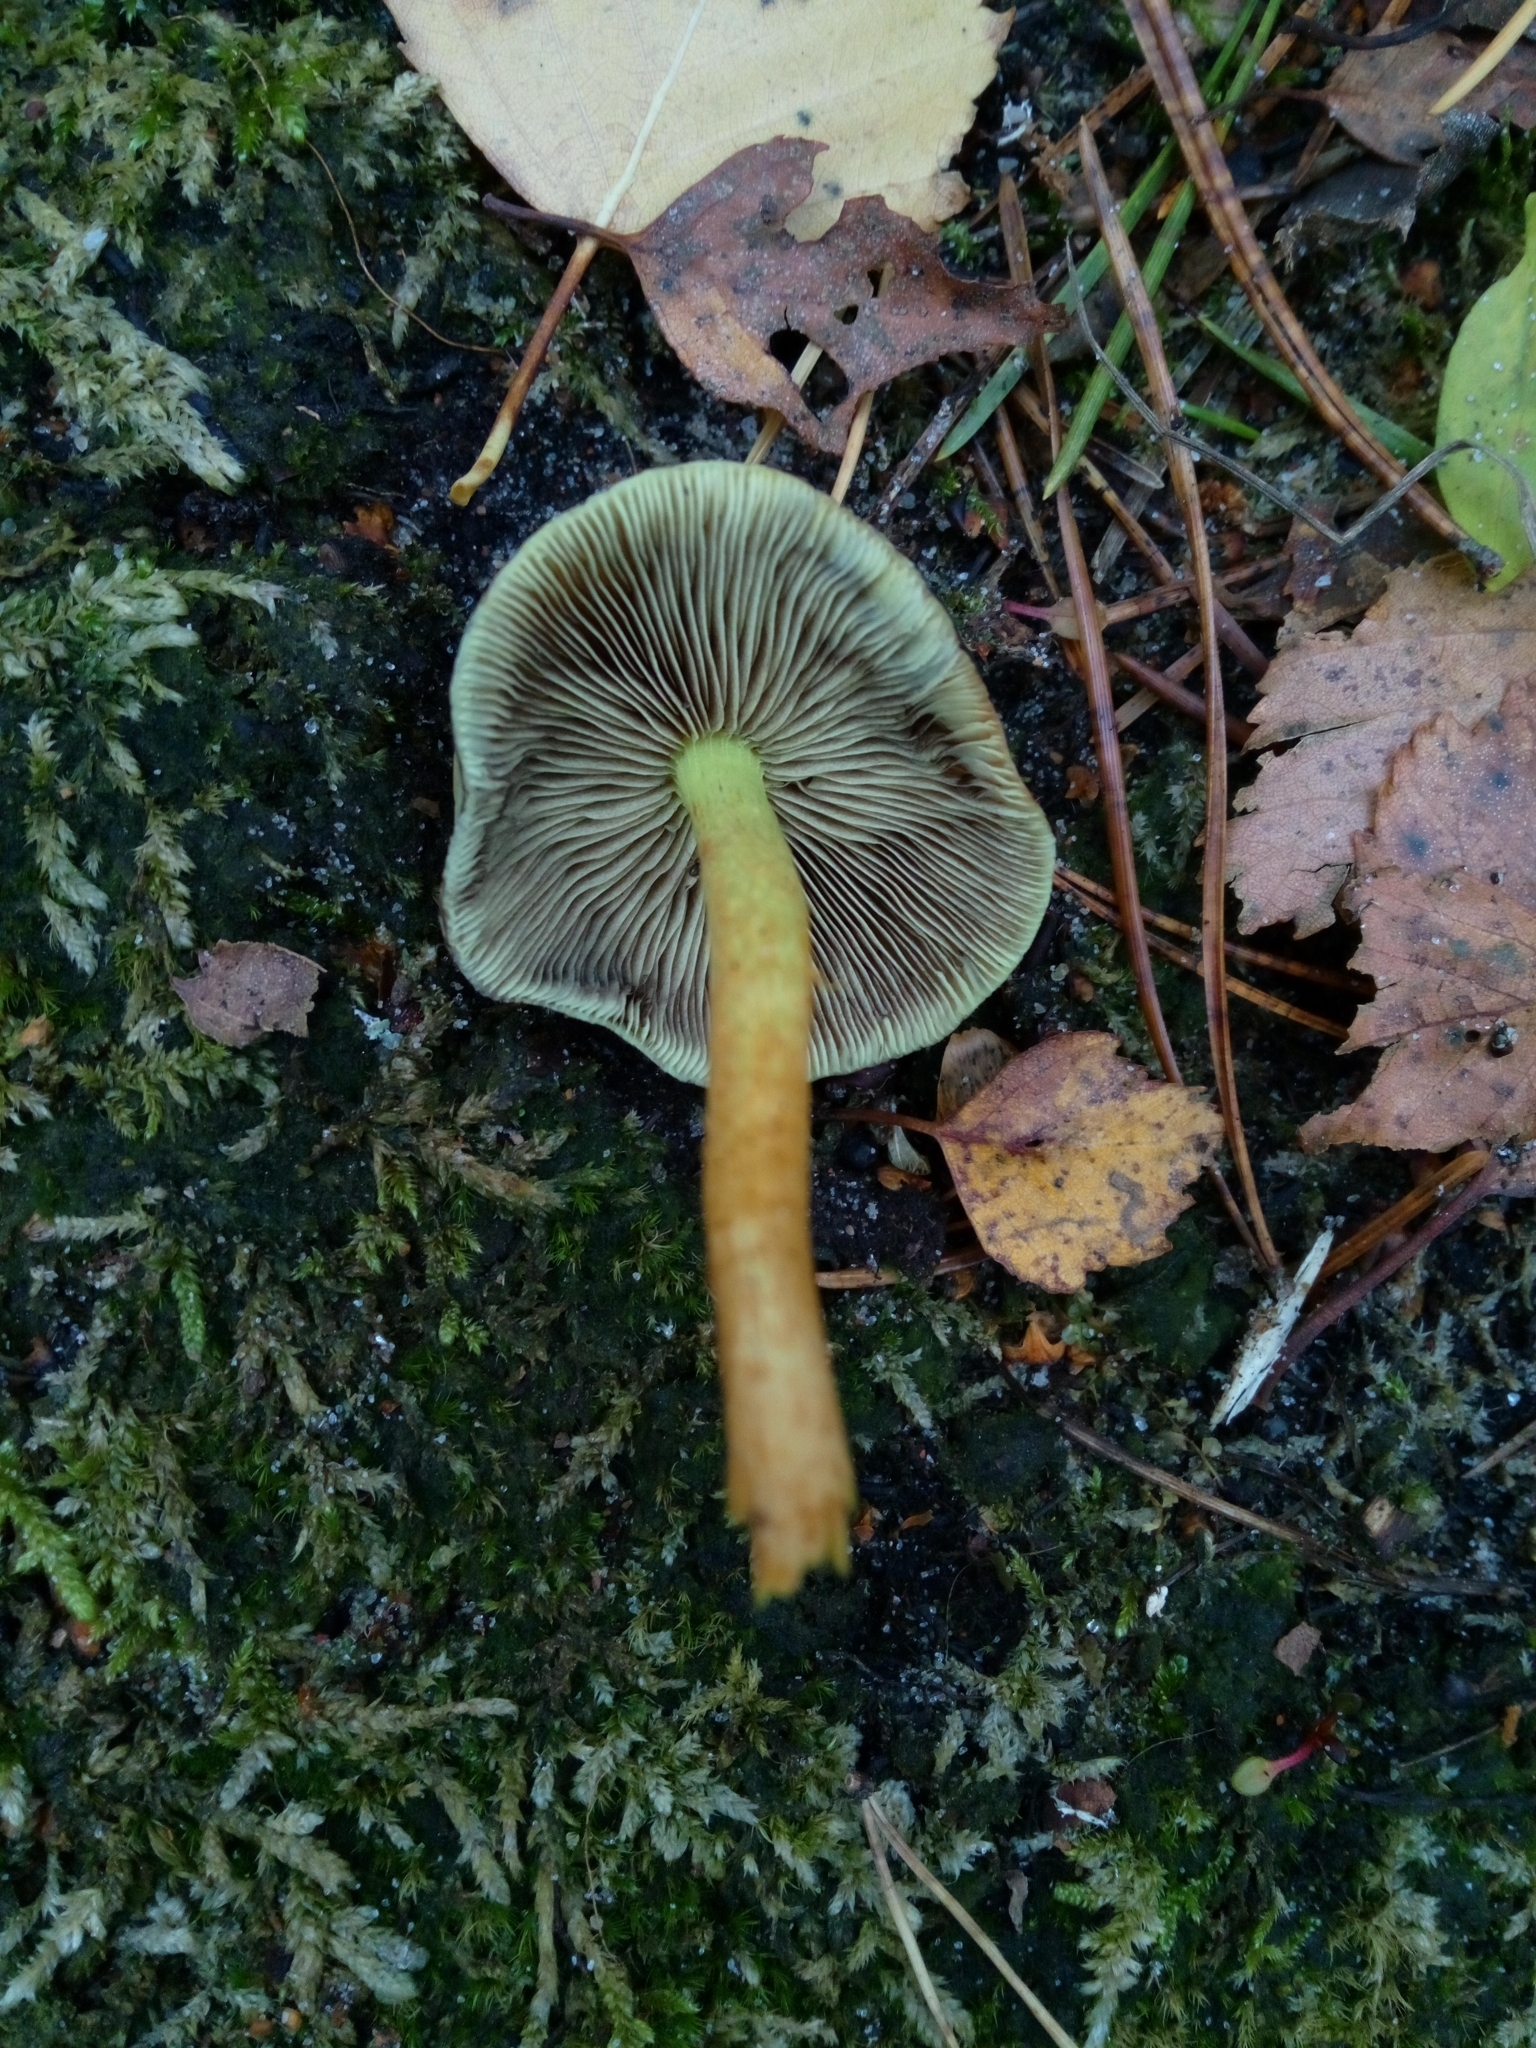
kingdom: Fungi
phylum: Basidiomycota
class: Agaricomycetes
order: Agaricales
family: Strophariaceae
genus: Hypholoma
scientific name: Hypholoma fasciculare
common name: Sulphur tuft
